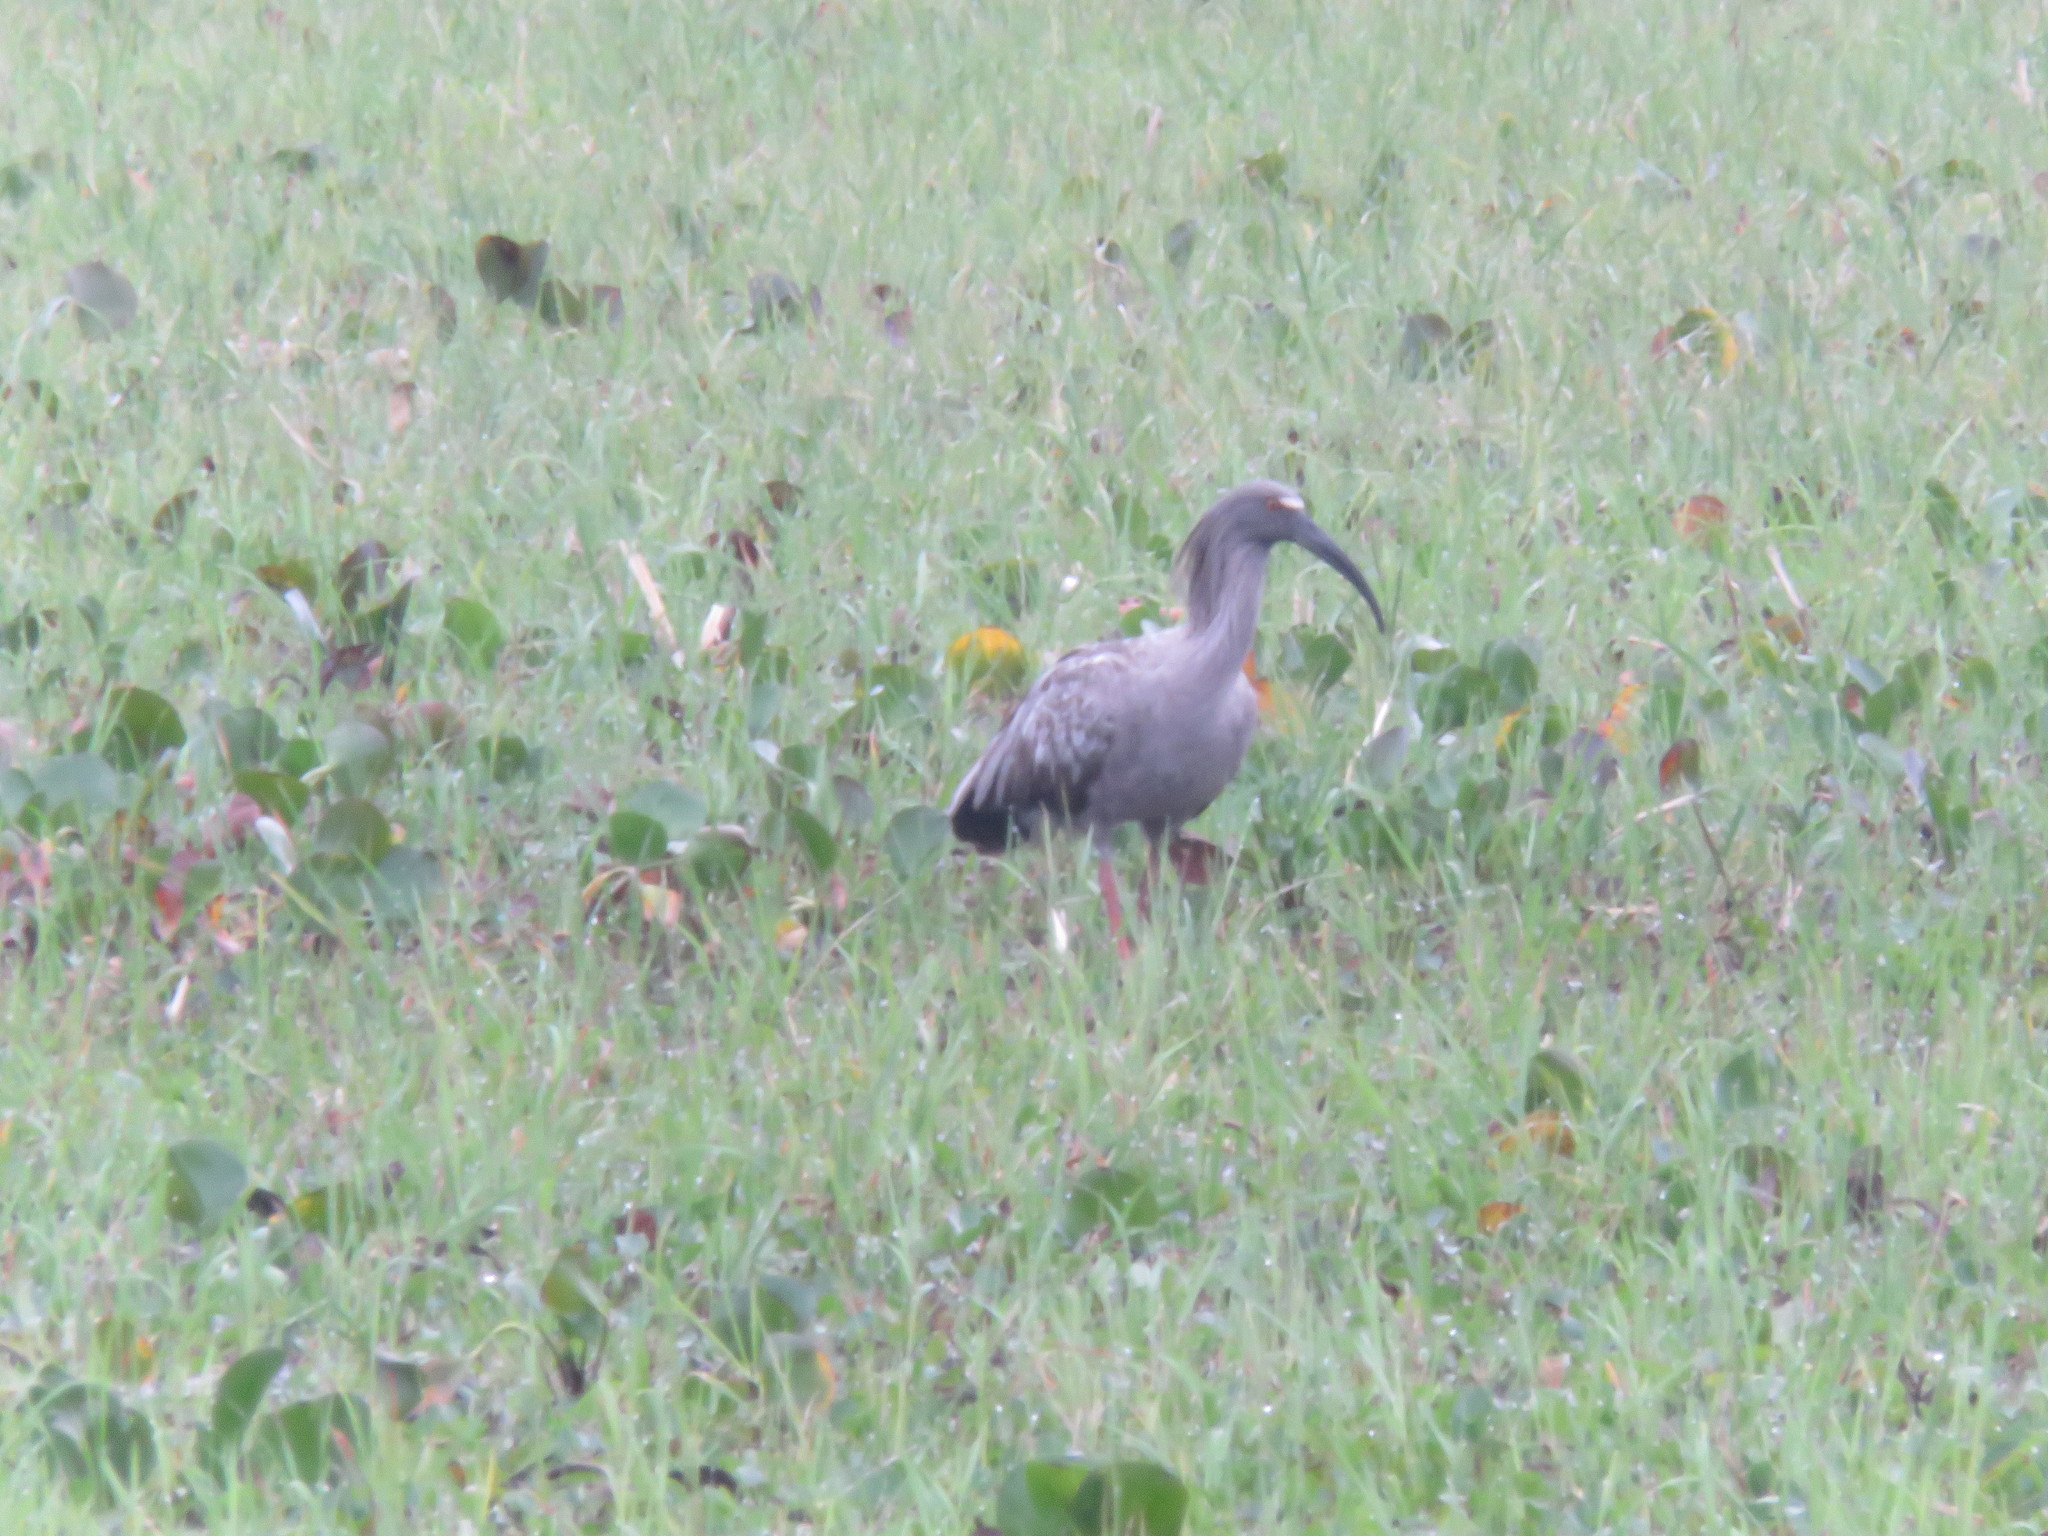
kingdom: Animalia
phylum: Chordata
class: Aves
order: Pelecaniformes
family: Threskiornithidae
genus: Theristicus
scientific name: Theristicus caerulescens
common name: Plumbeous ibis
